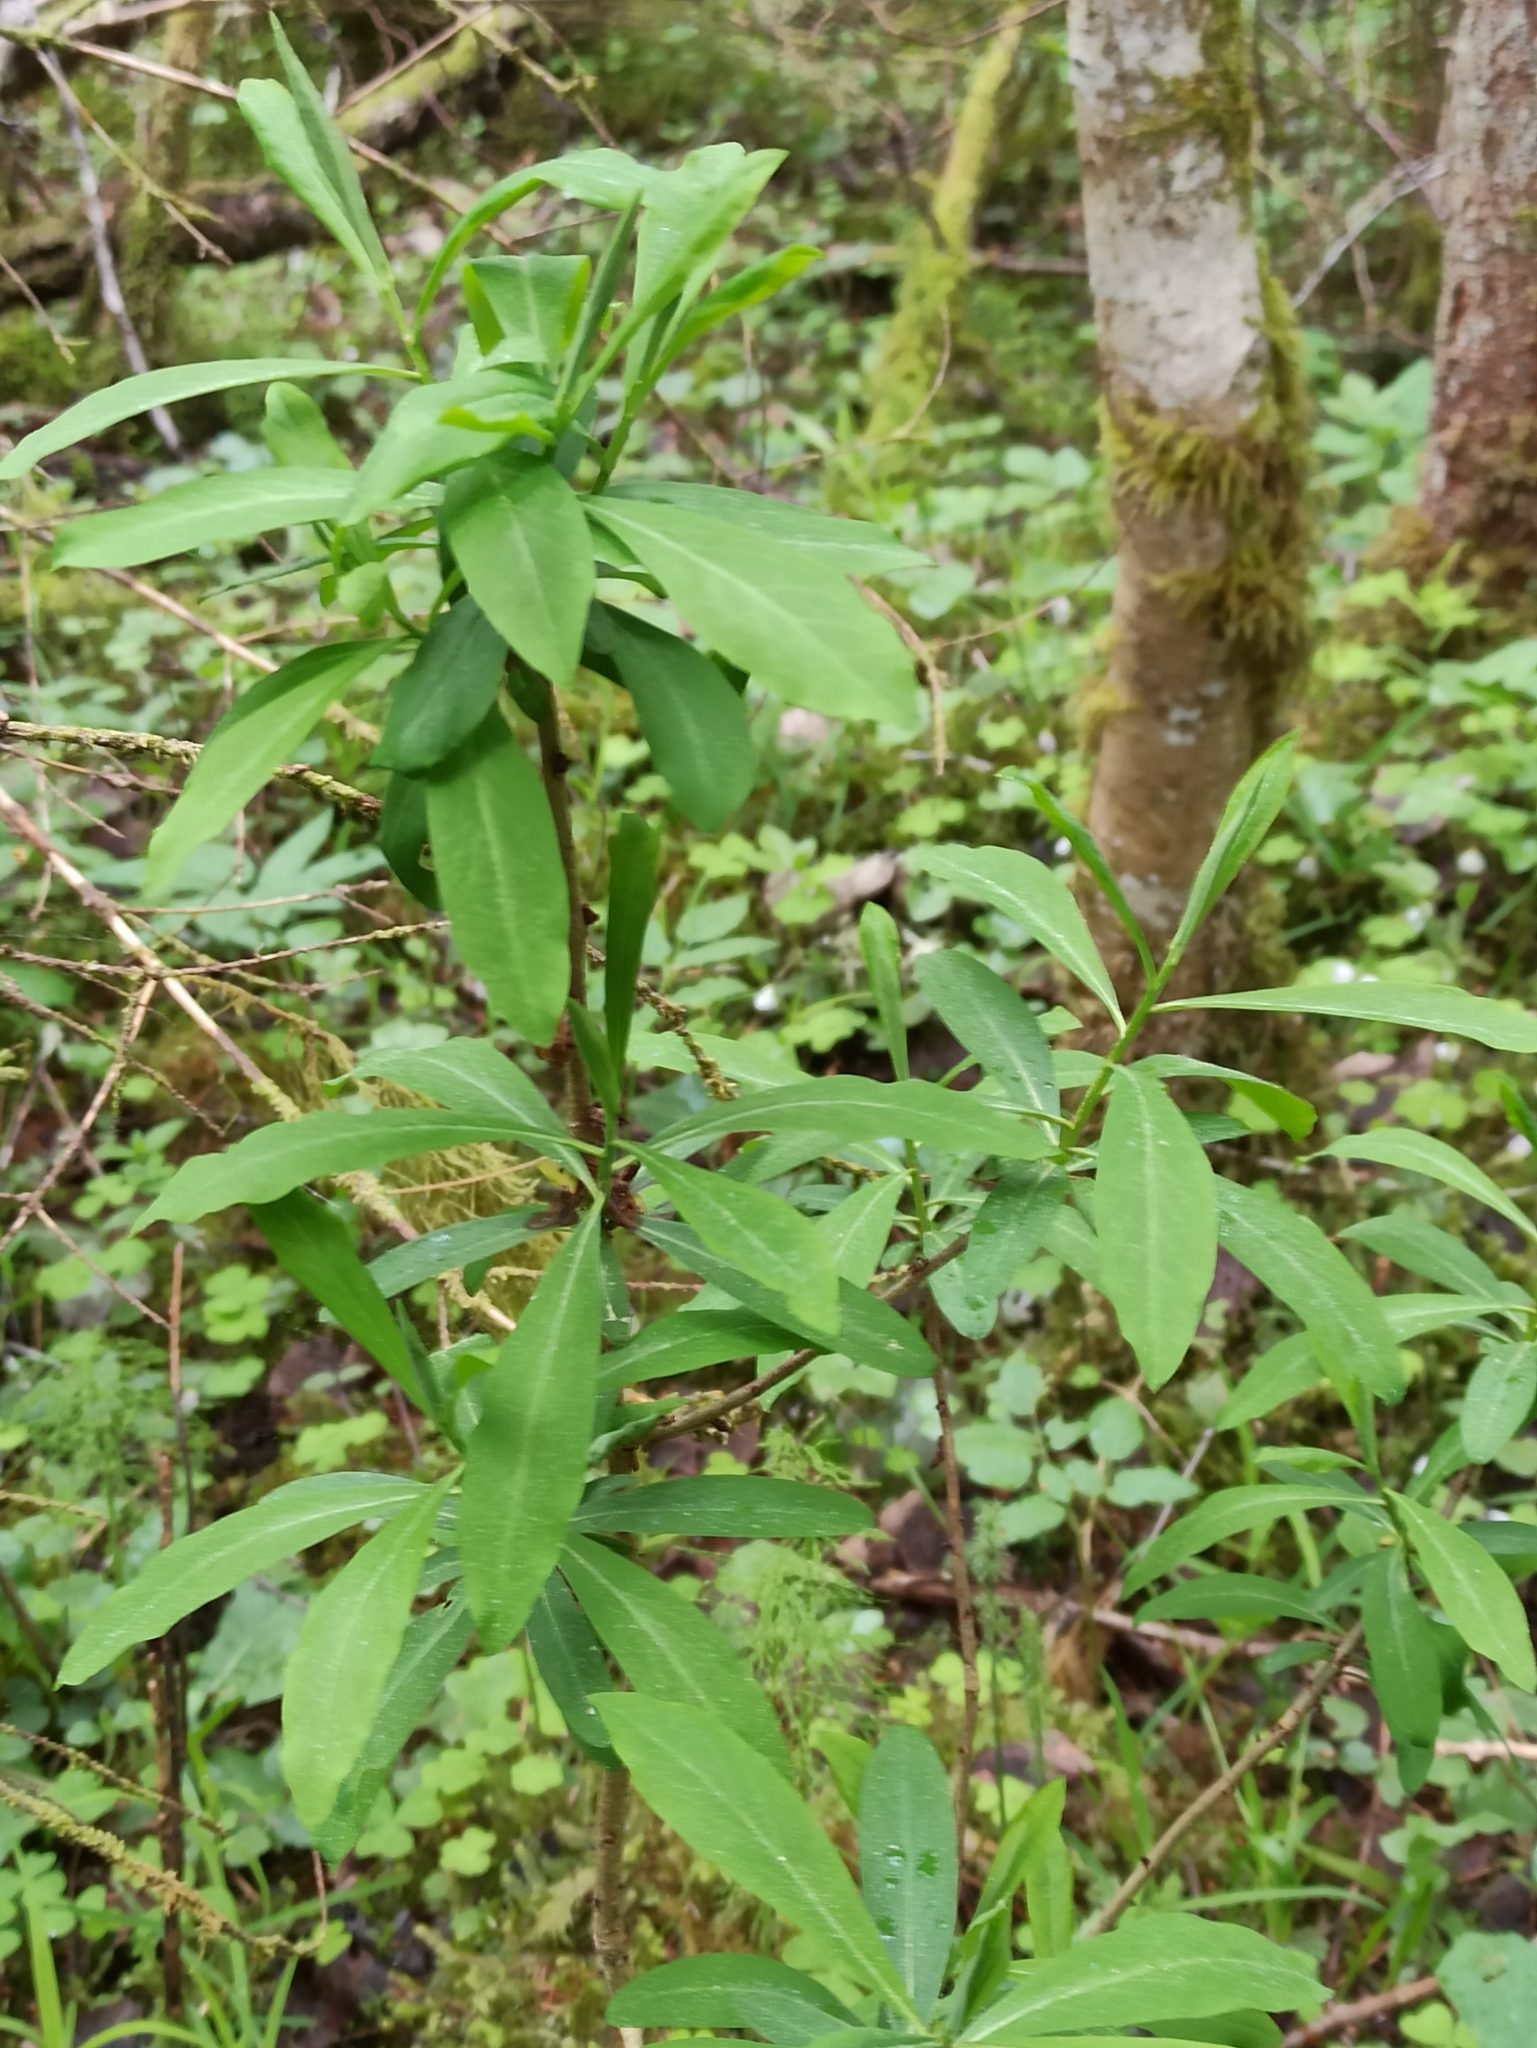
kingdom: Plantae
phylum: Tracheophyta
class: Magnoliopsida
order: Malvales
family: Thymelaeaceae
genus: Daphne
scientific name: Daphne mezereum
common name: Mezereon
